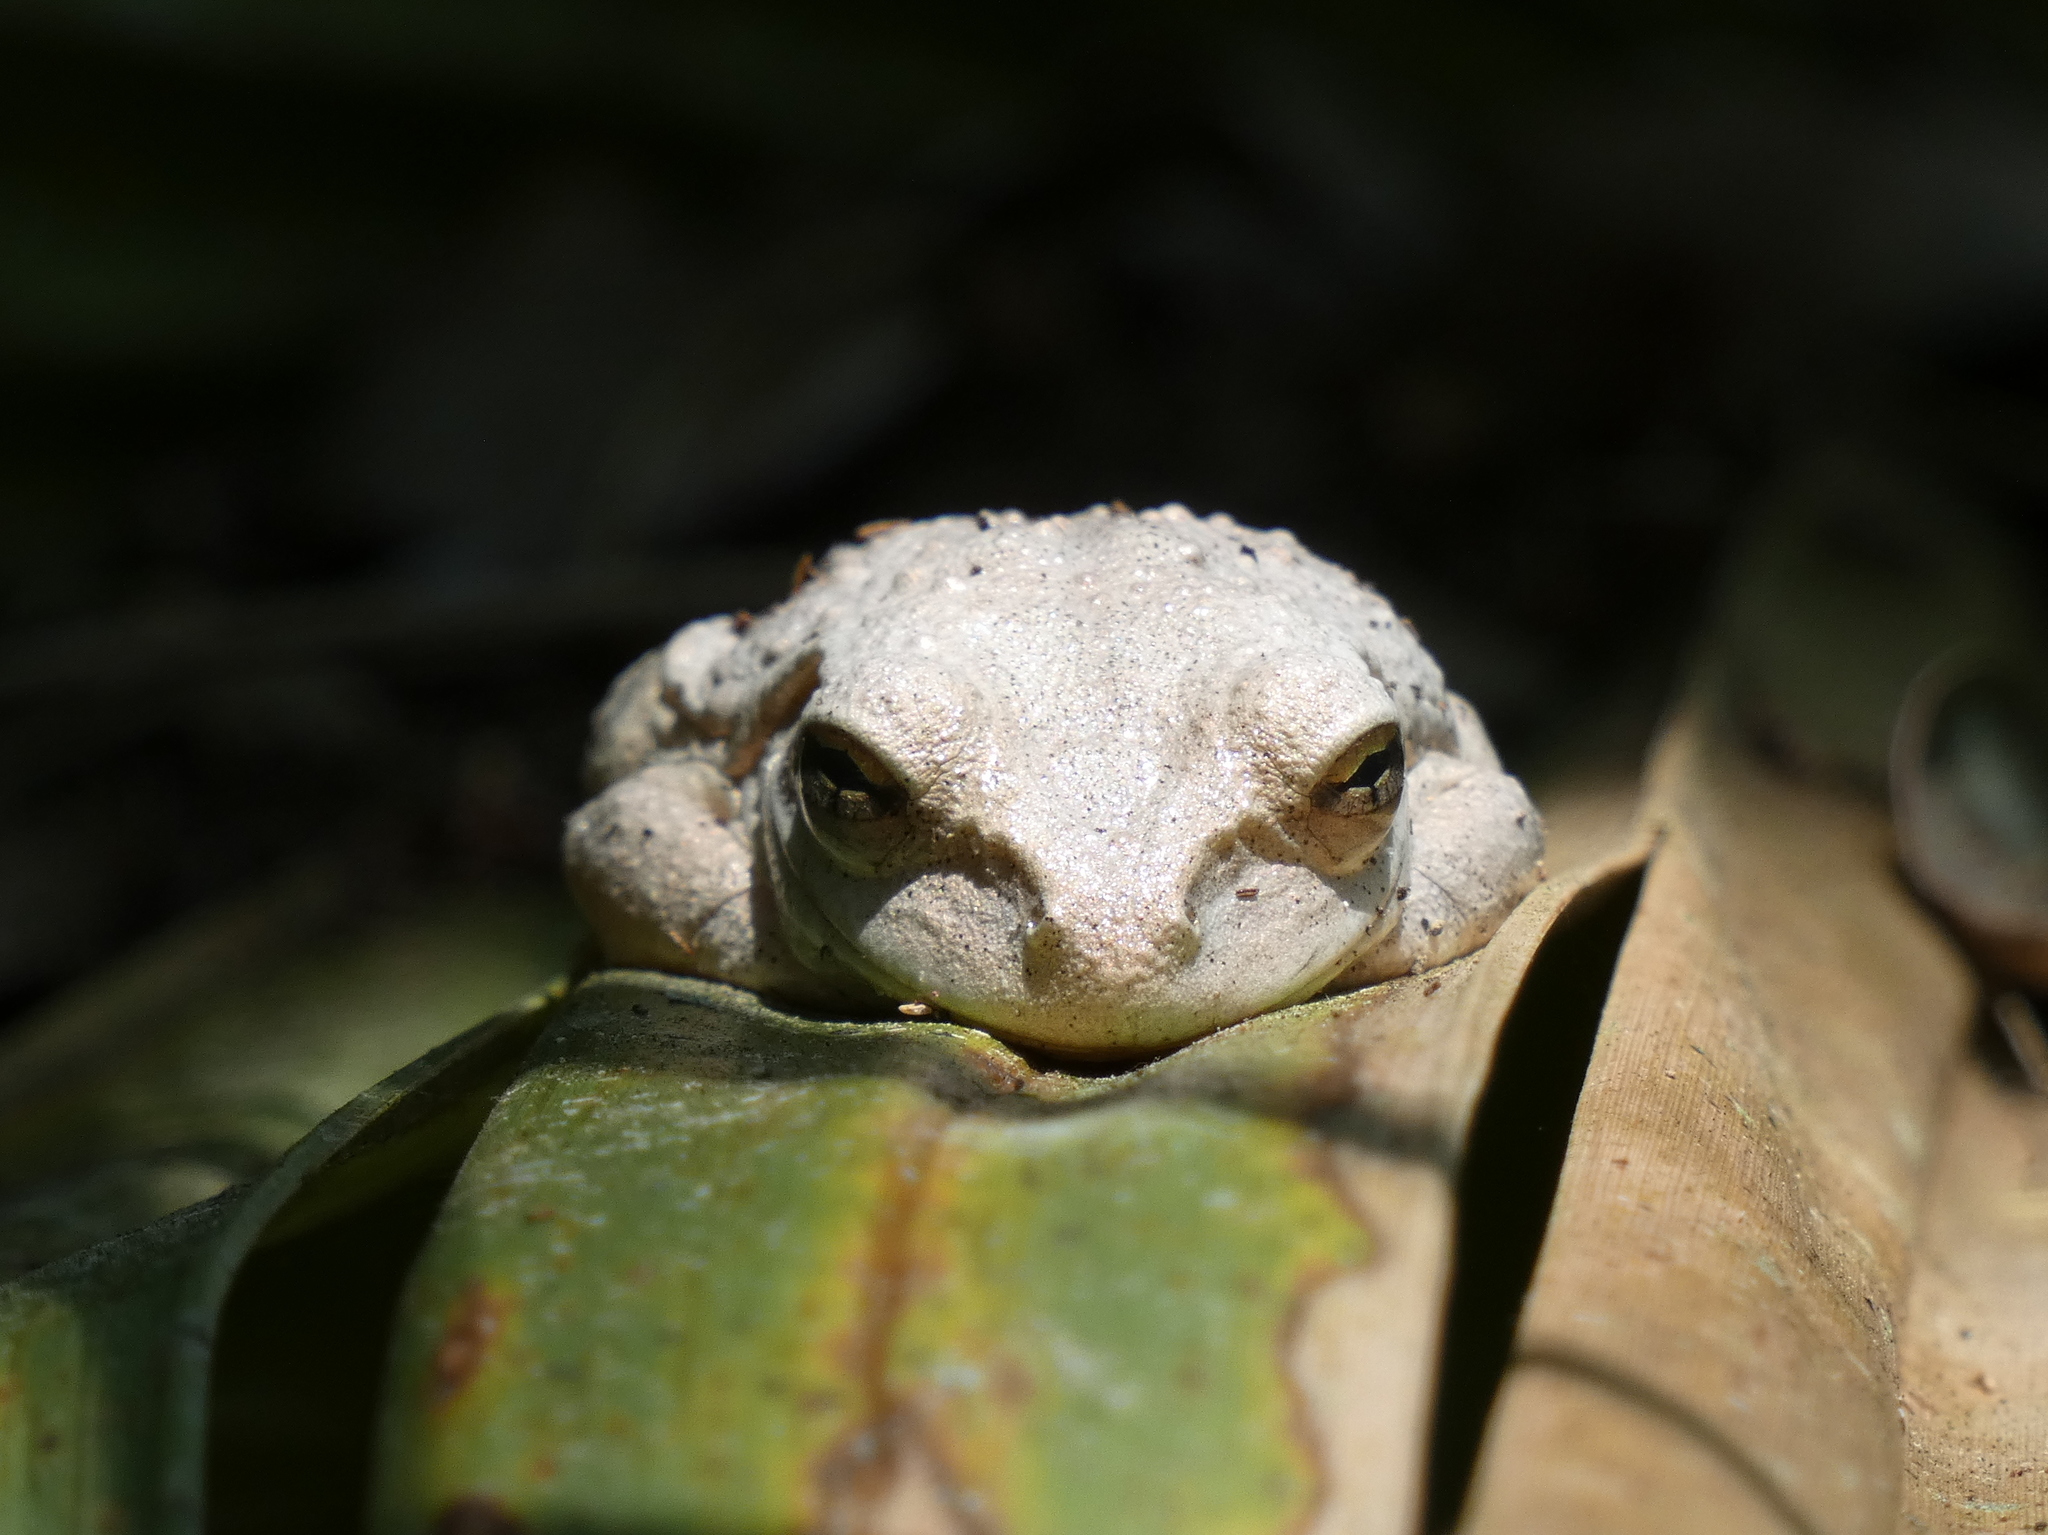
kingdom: Animalia
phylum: Chordata
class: Amphibia
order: Anura
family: Hylidae
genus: Osteopilus
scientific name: Osteopilus septentrionalis
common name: Cuban treefrog
